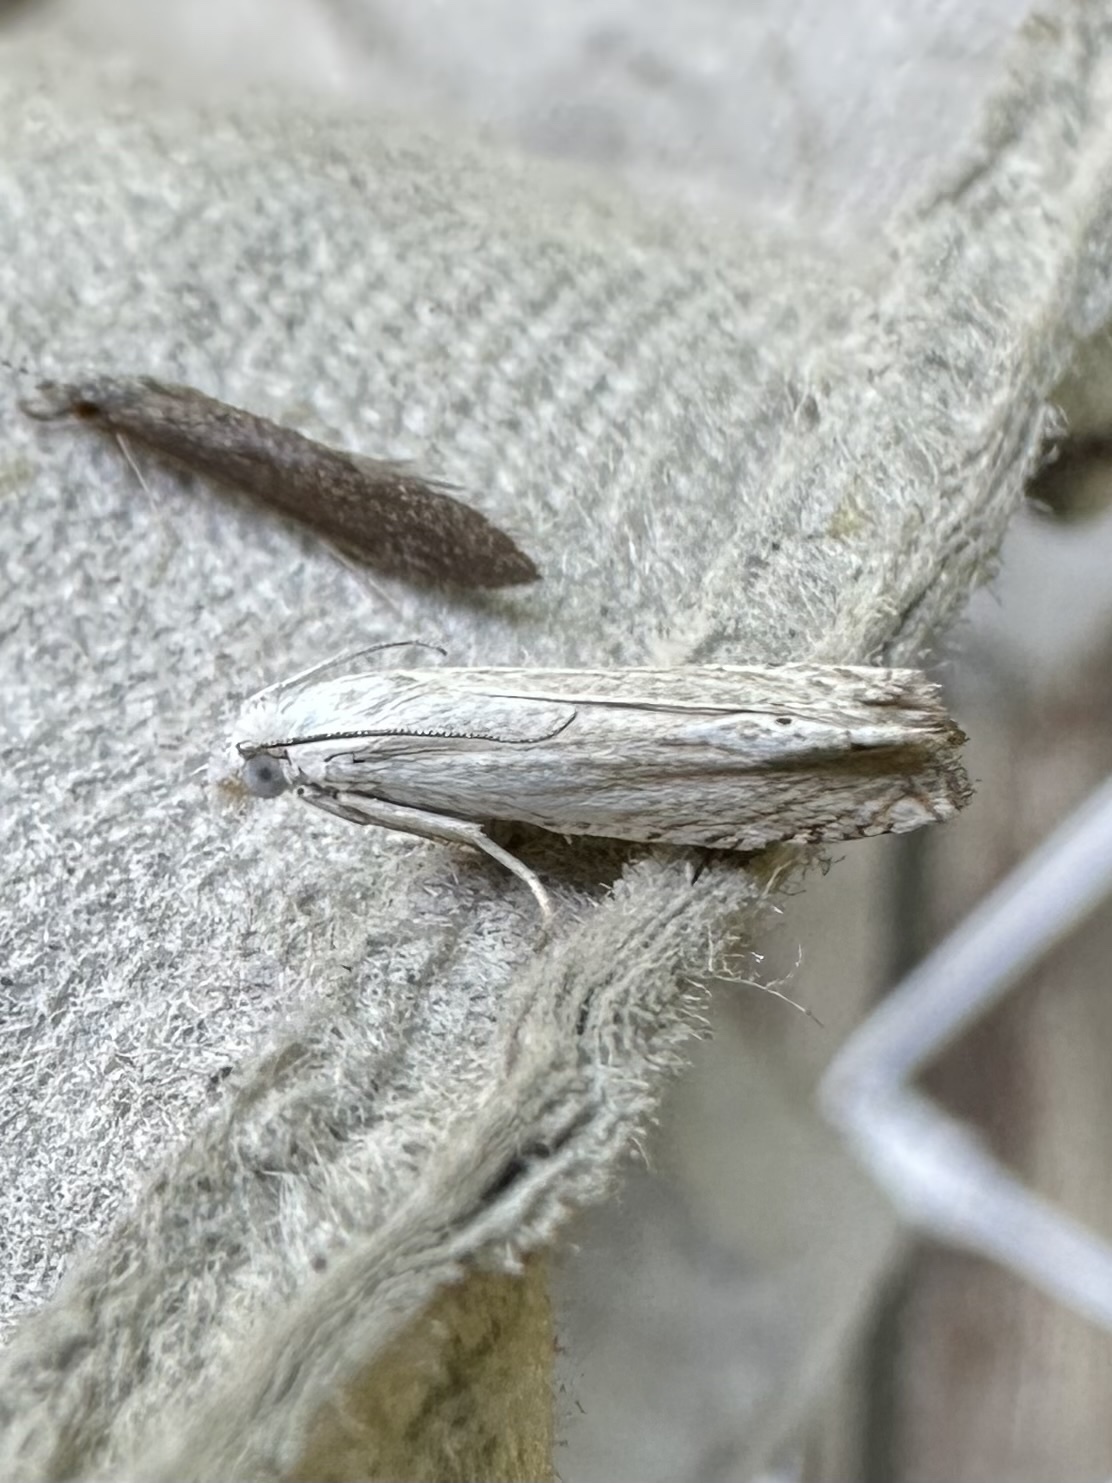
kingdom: Animalia
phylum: Arthropoda
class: Insecta
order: Lepidoptera
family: Tortricidae
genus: Pelochrista
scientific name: Pelochrista argentialbana
